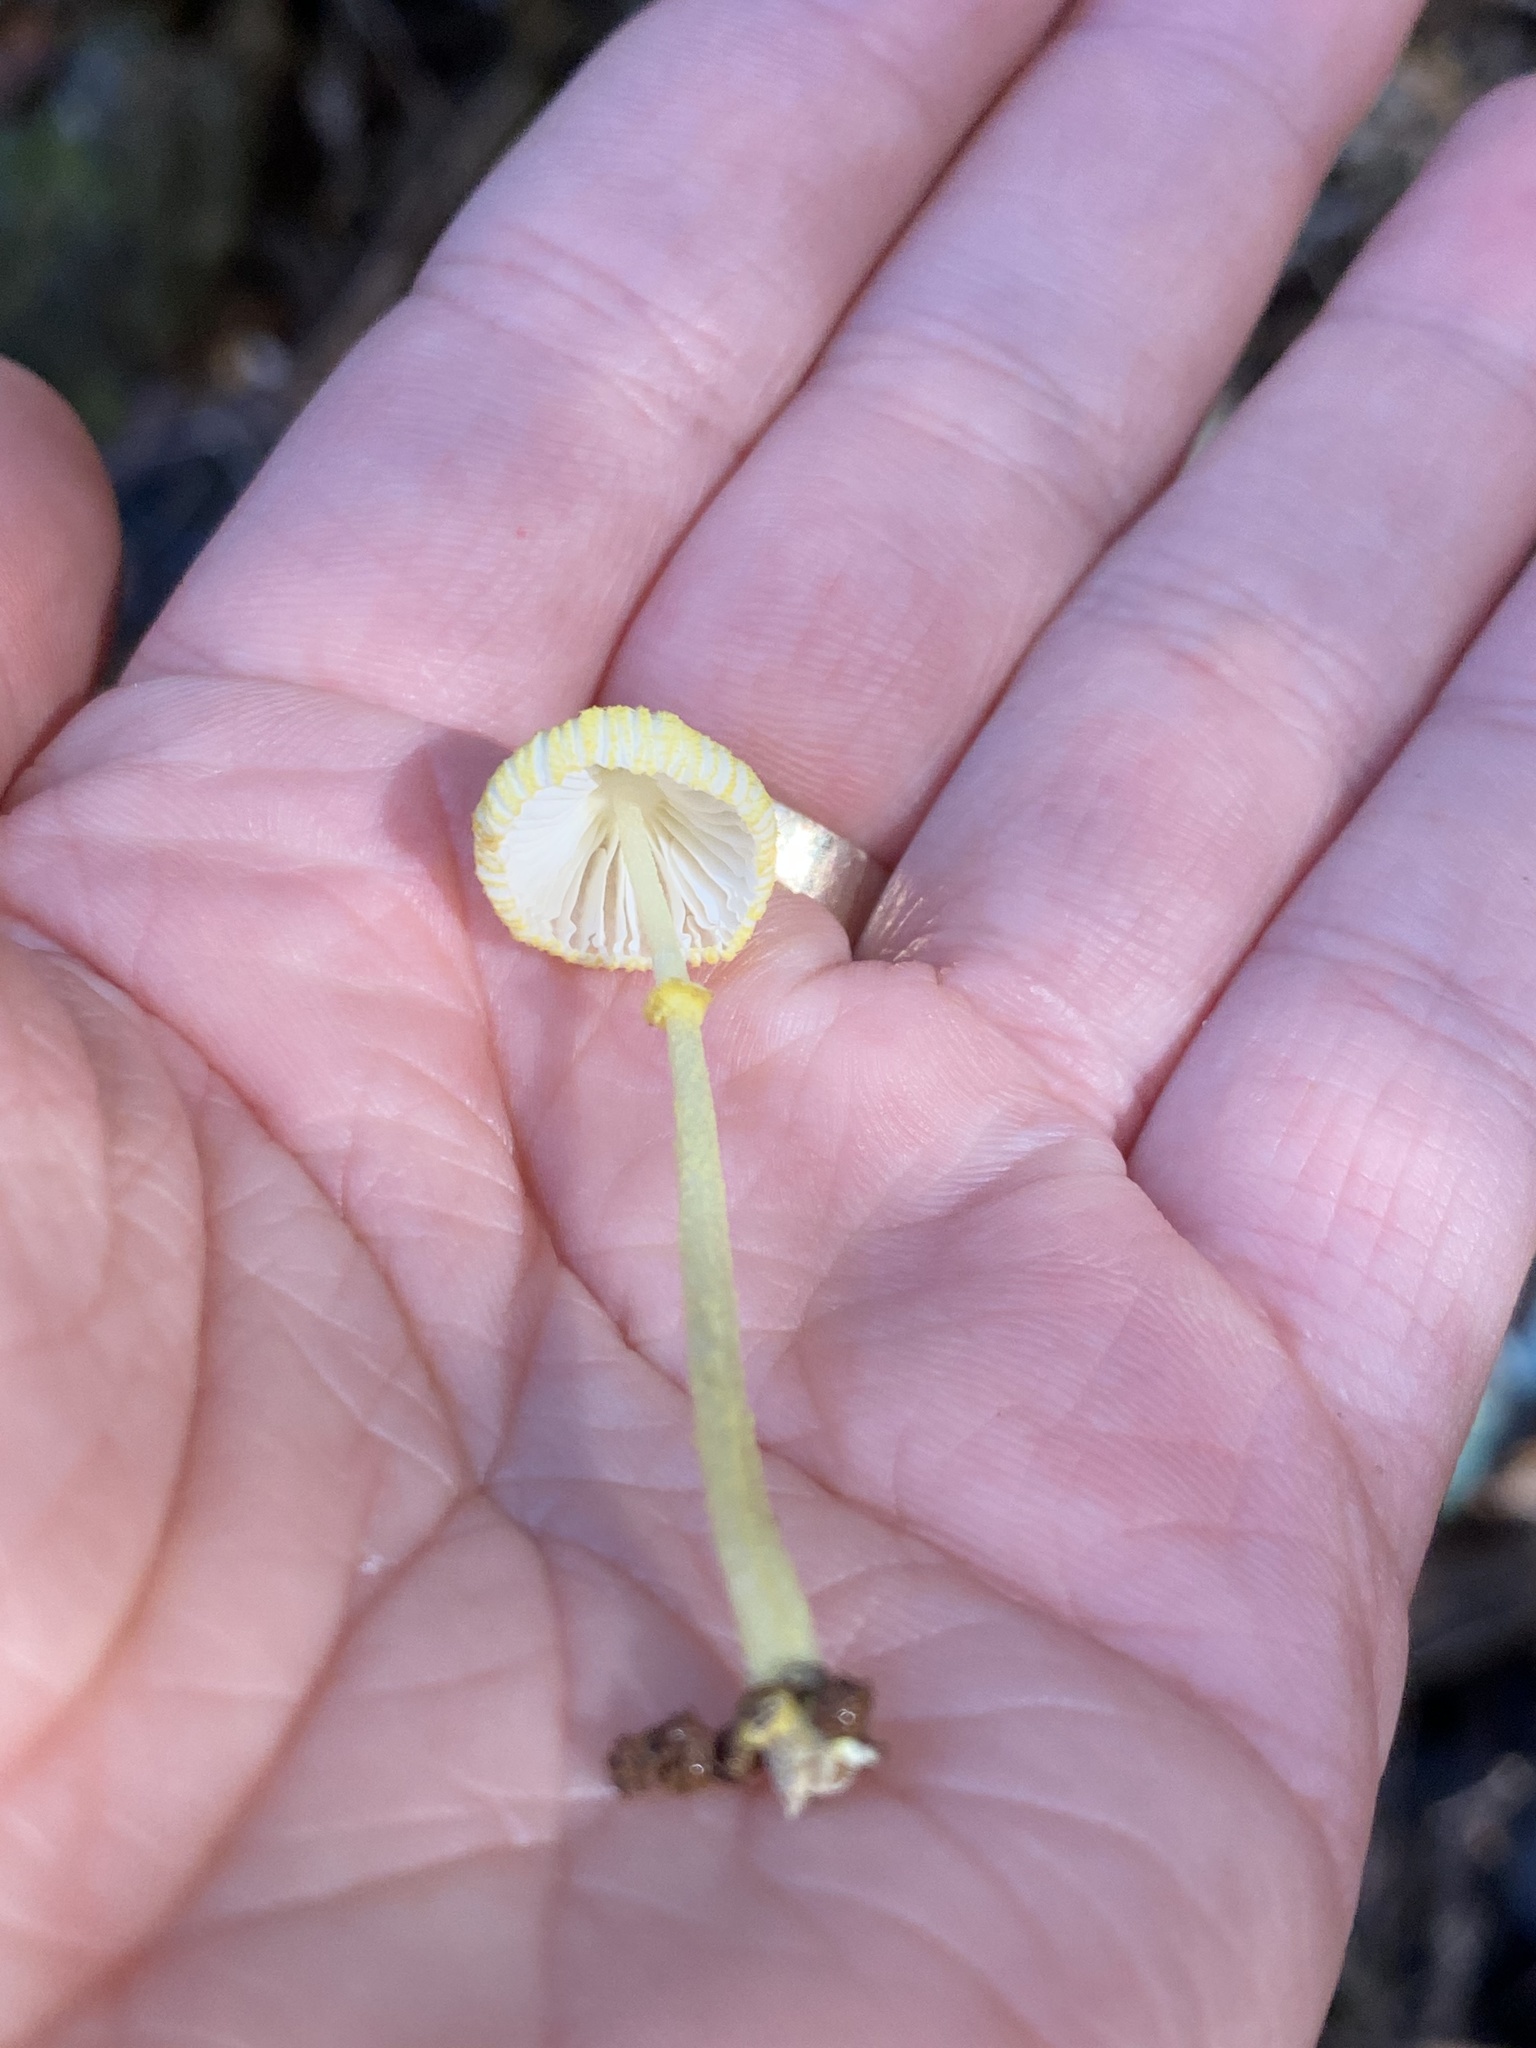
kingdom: Fungi
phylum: Basidiomycota
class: Agaricomycetes
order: Agaricales
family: Agaricaceae
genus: Leucocoprinus
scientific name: Leucocoprinus fragilissimus
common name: Fragile dapperling
